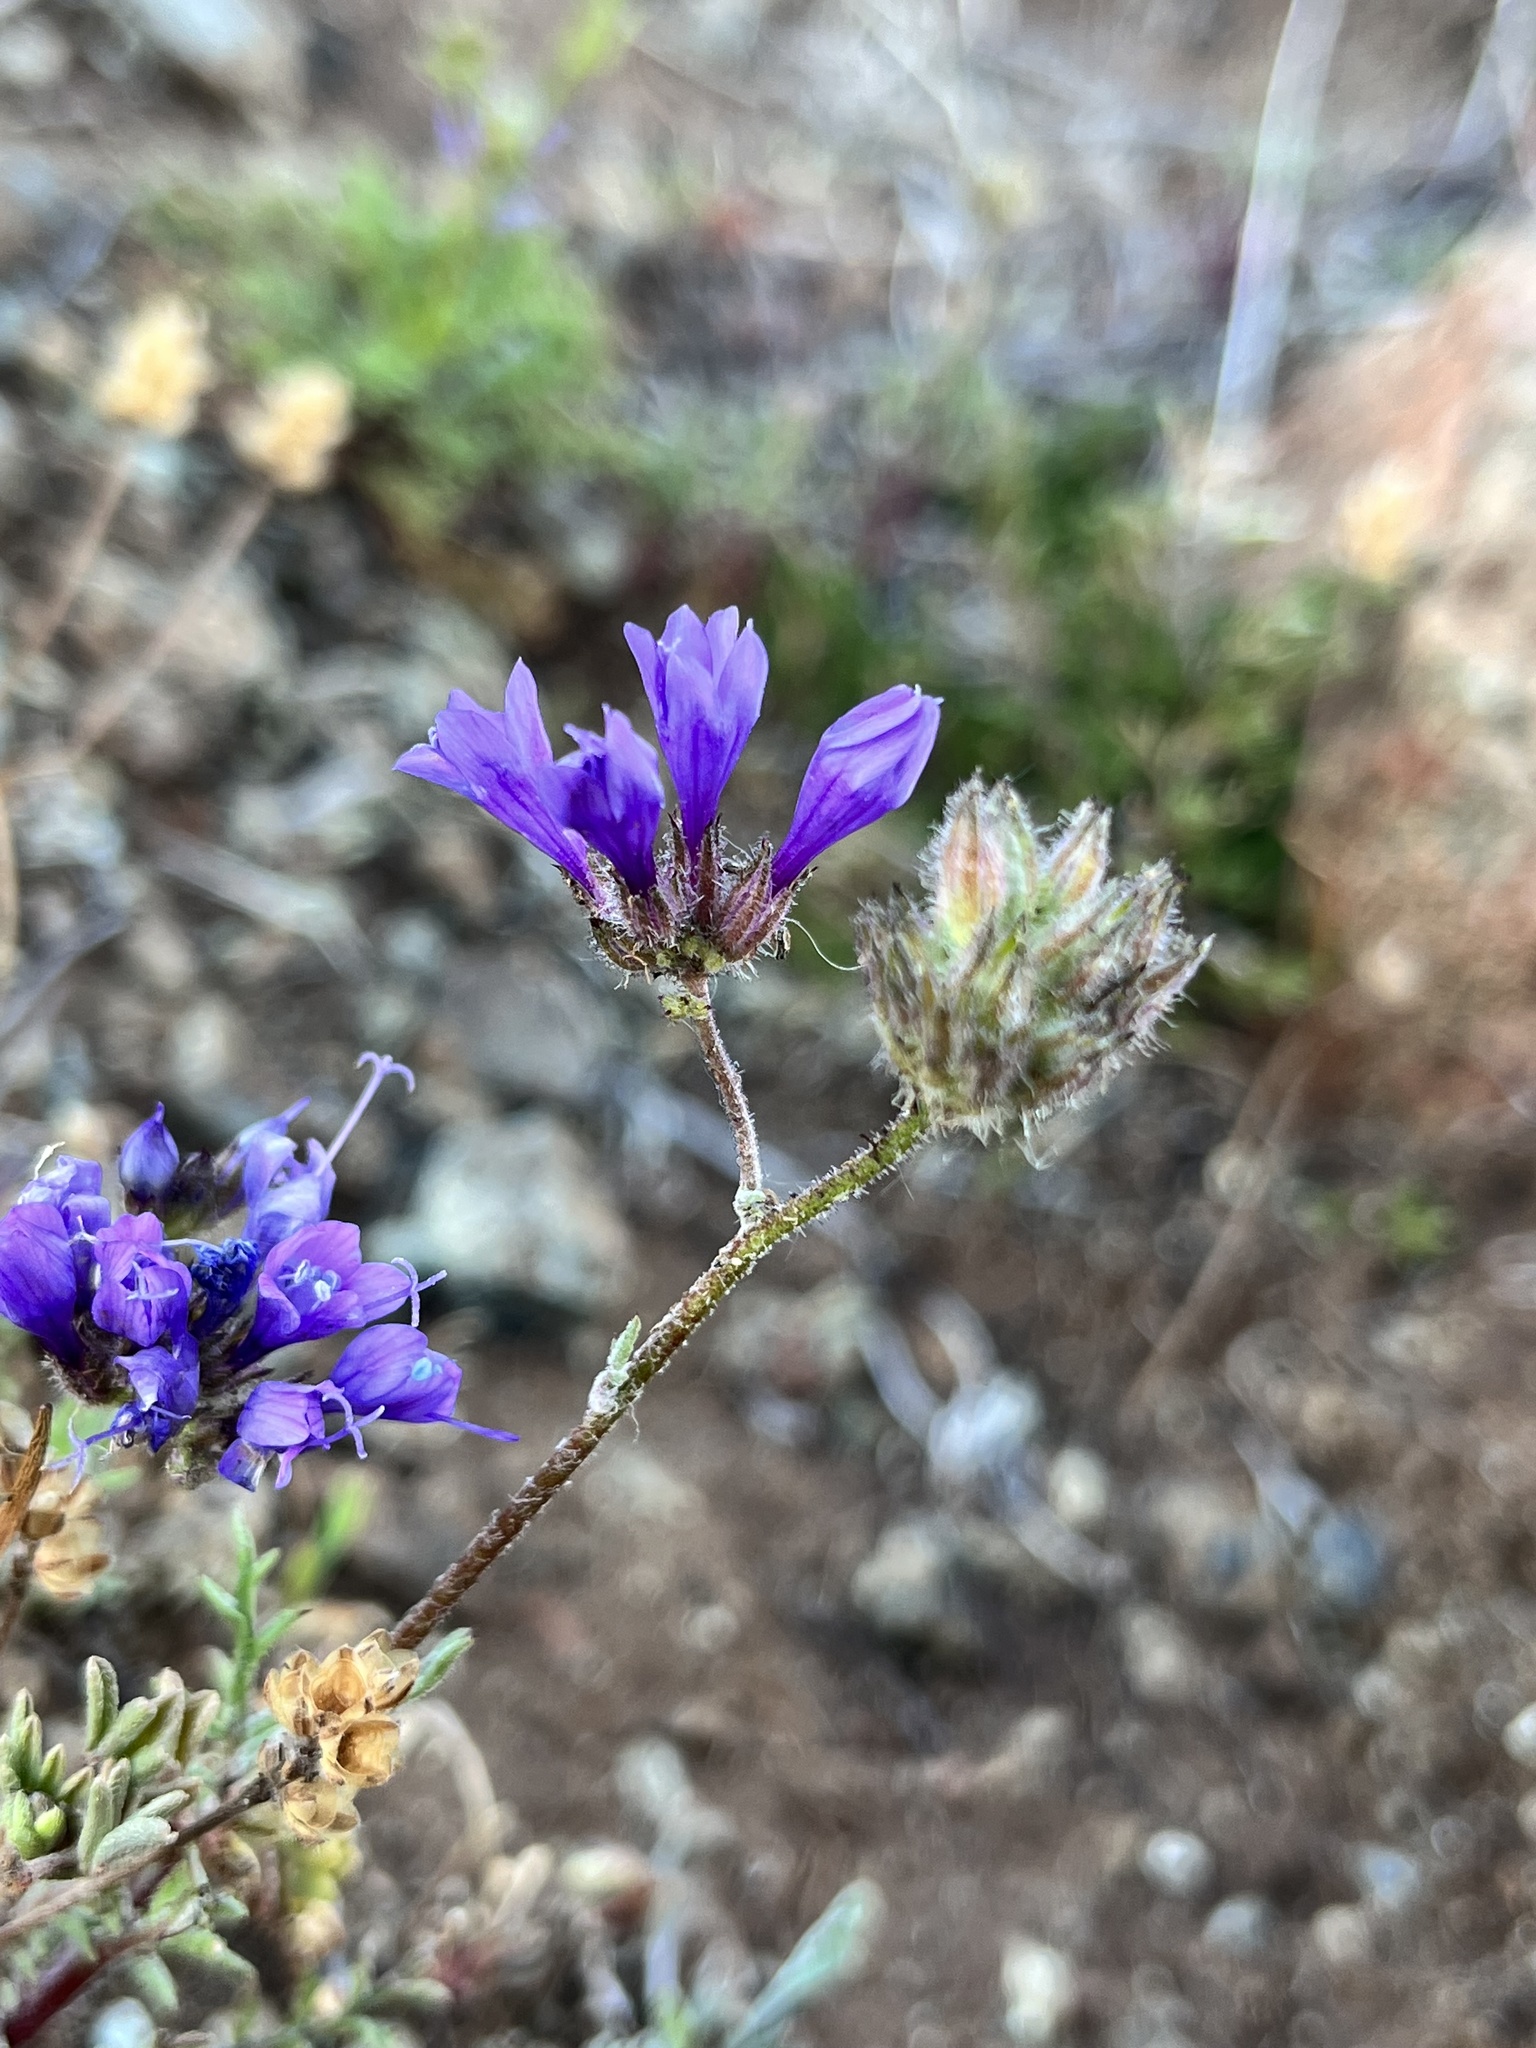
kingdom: Plantae
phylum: Tracheophyta
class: Magnoliopsida
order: Ericales
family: Polemoniaceae
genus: Gilia
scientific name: Gilia achilleifolia
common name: California gily-flower
